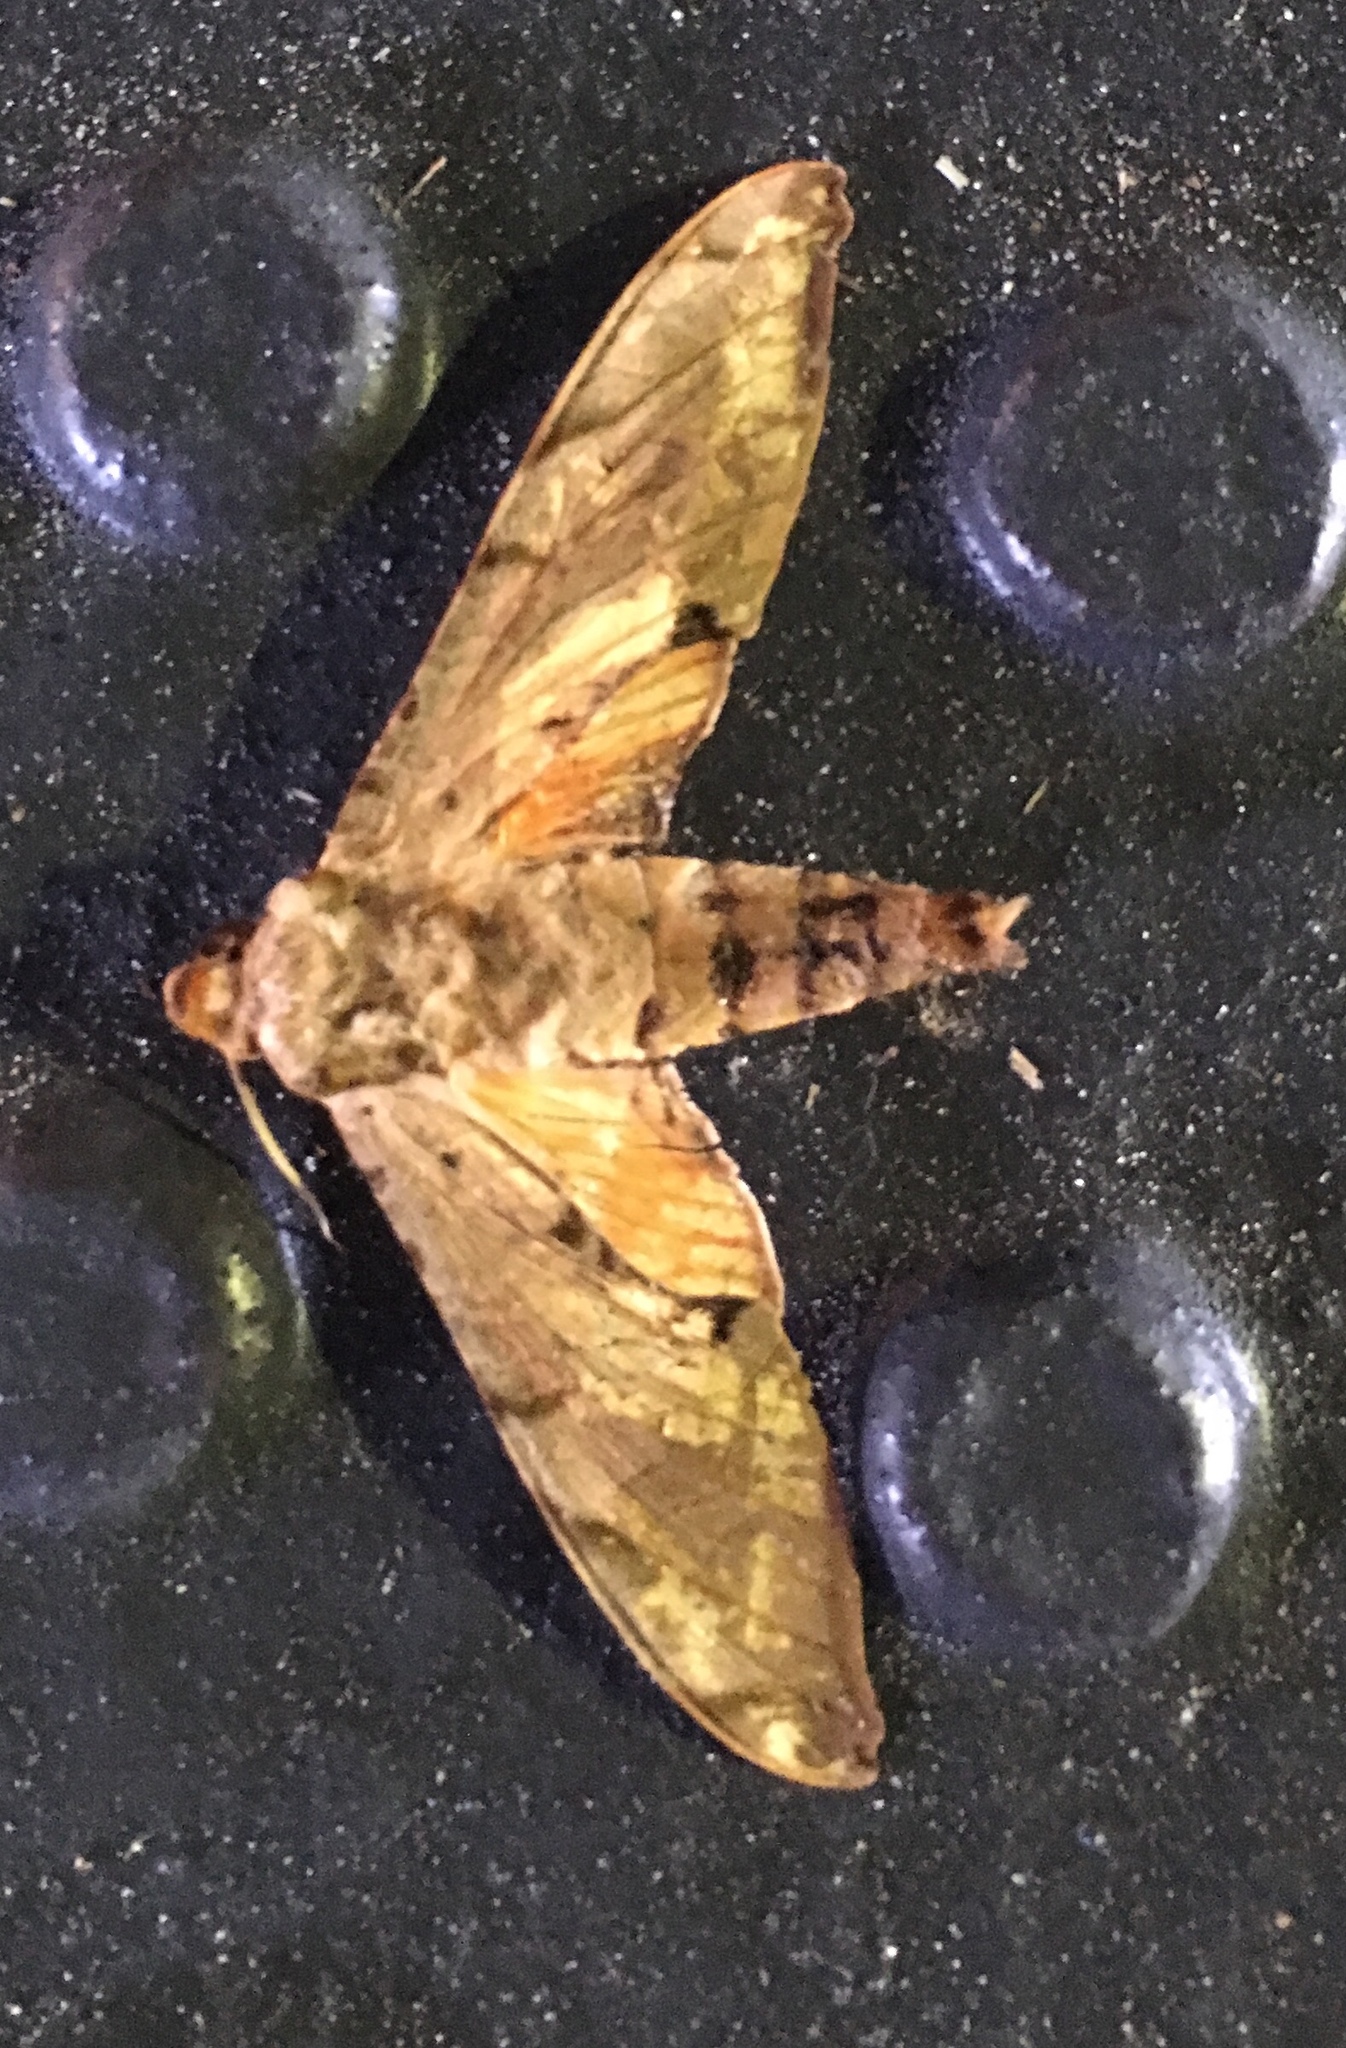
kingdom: Animalia
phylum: Arthropoda
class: Insecta
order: Lepidoptera
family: Sphingidae
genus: Protambulyx
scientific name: Protambulyx strigilis
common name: Streaked sphinx
